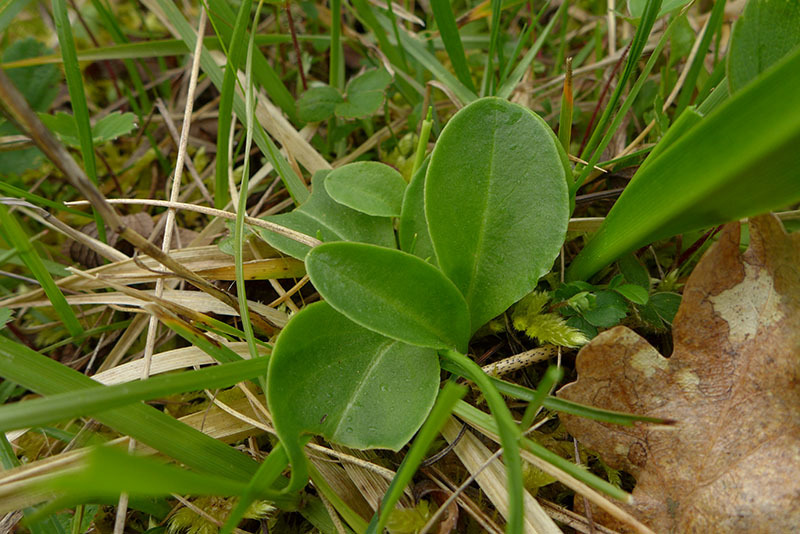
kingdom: Plantae
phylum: Tracheophyta
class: Magnoliopsida
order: Ericales
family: Primulaceae
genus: Dodecatheon
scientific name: Dodecatheon hendersonii
